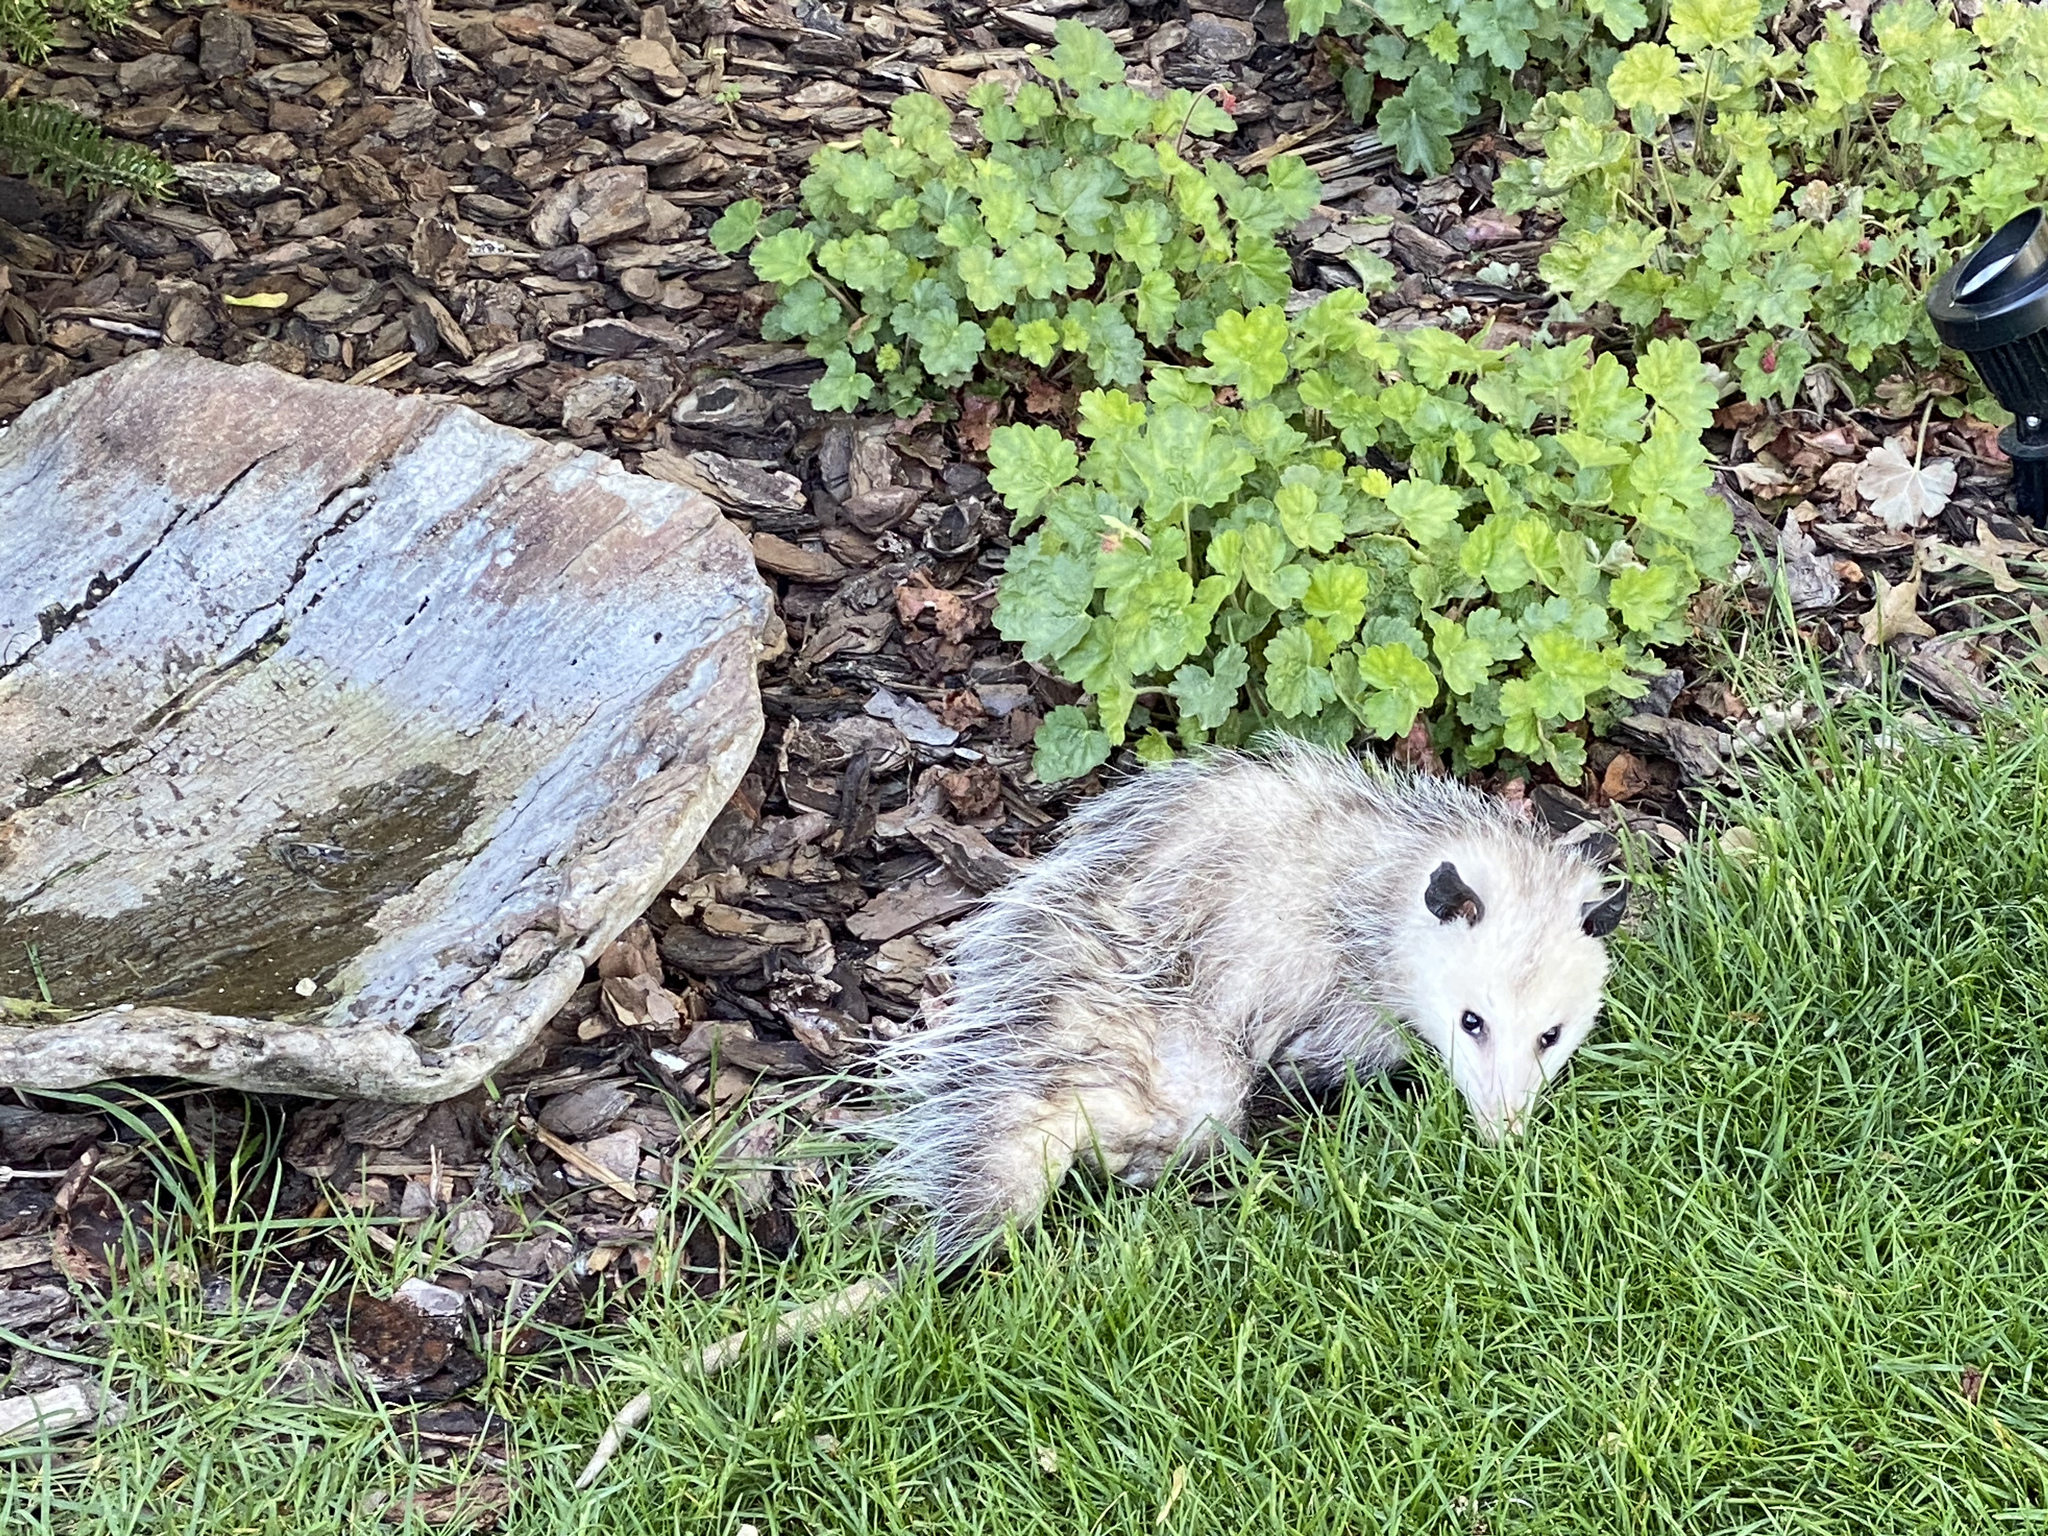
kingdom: Animalia
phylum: Chordata
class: Mammalia
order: Didelphimorphia
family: Didelphidae
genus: Didelphis
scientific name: Didelphis virginiana
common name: Virginia opossum
